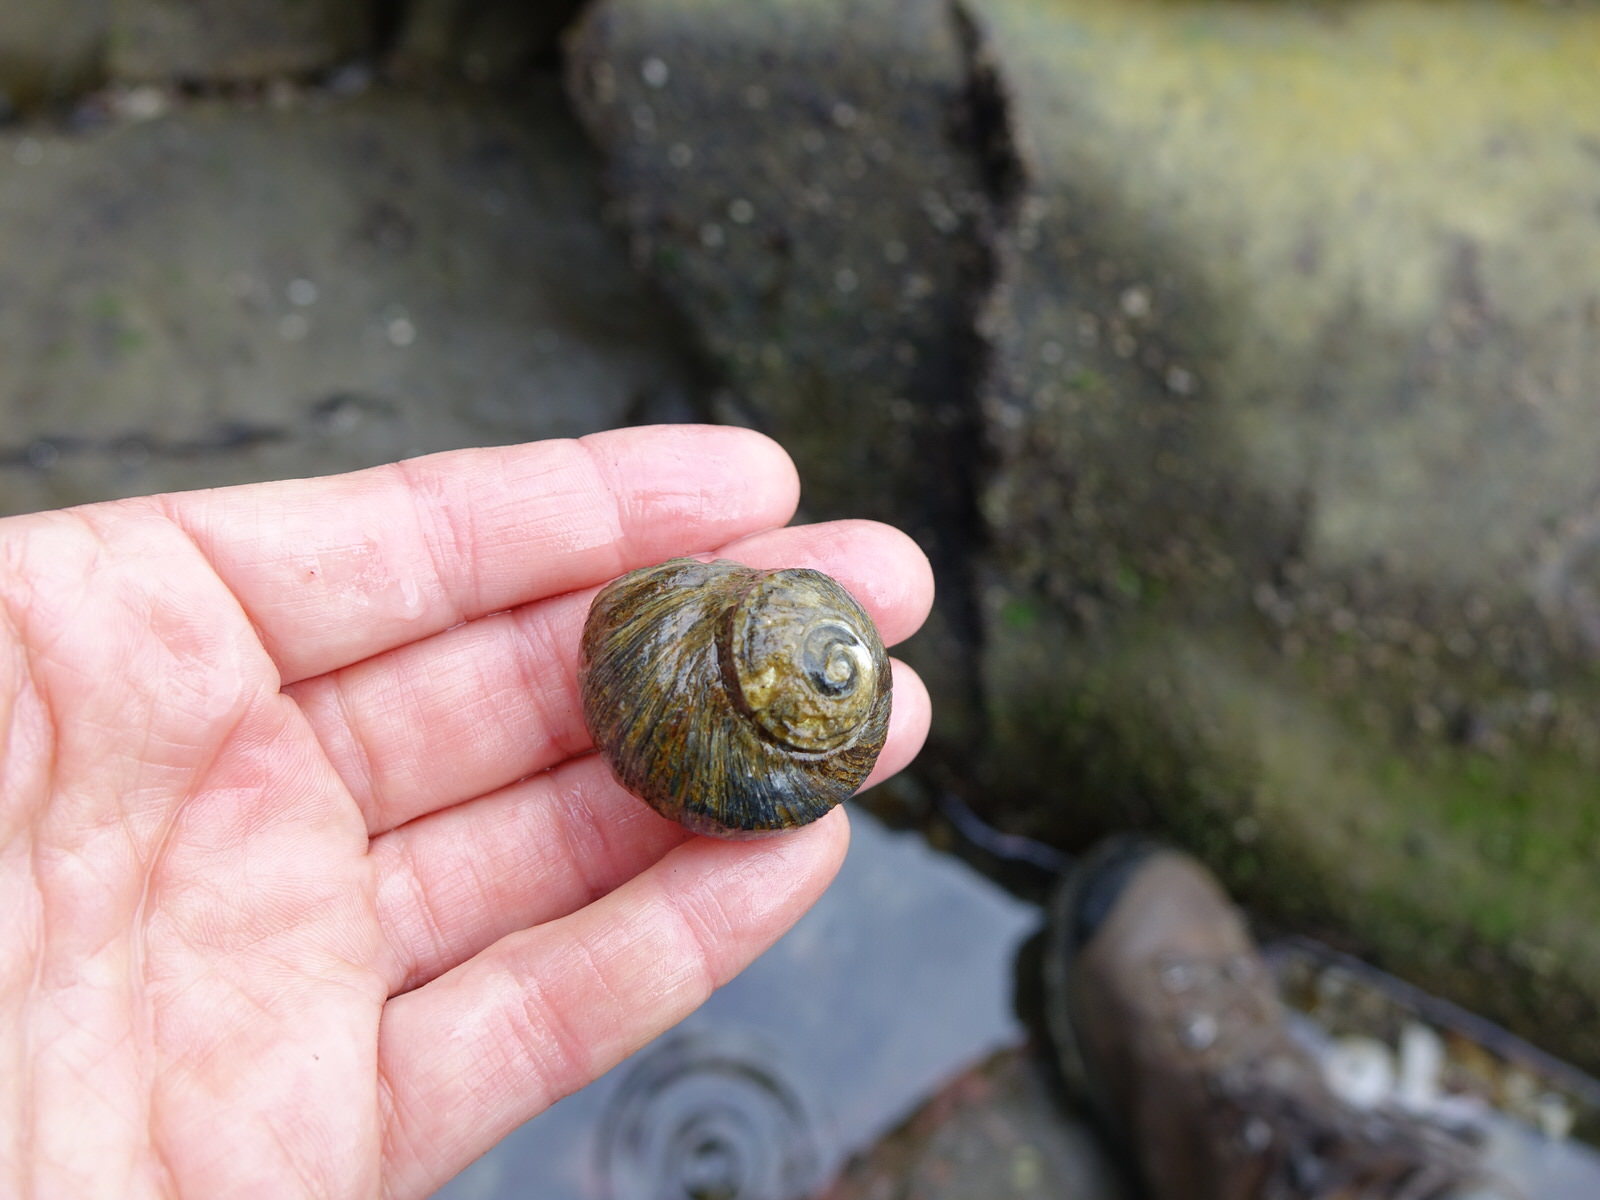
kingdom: Animalia
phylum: Mollusca
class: Gastropoda
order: Trochida
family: Turbinidae
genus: Lunella
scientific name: Lunella smaragda
